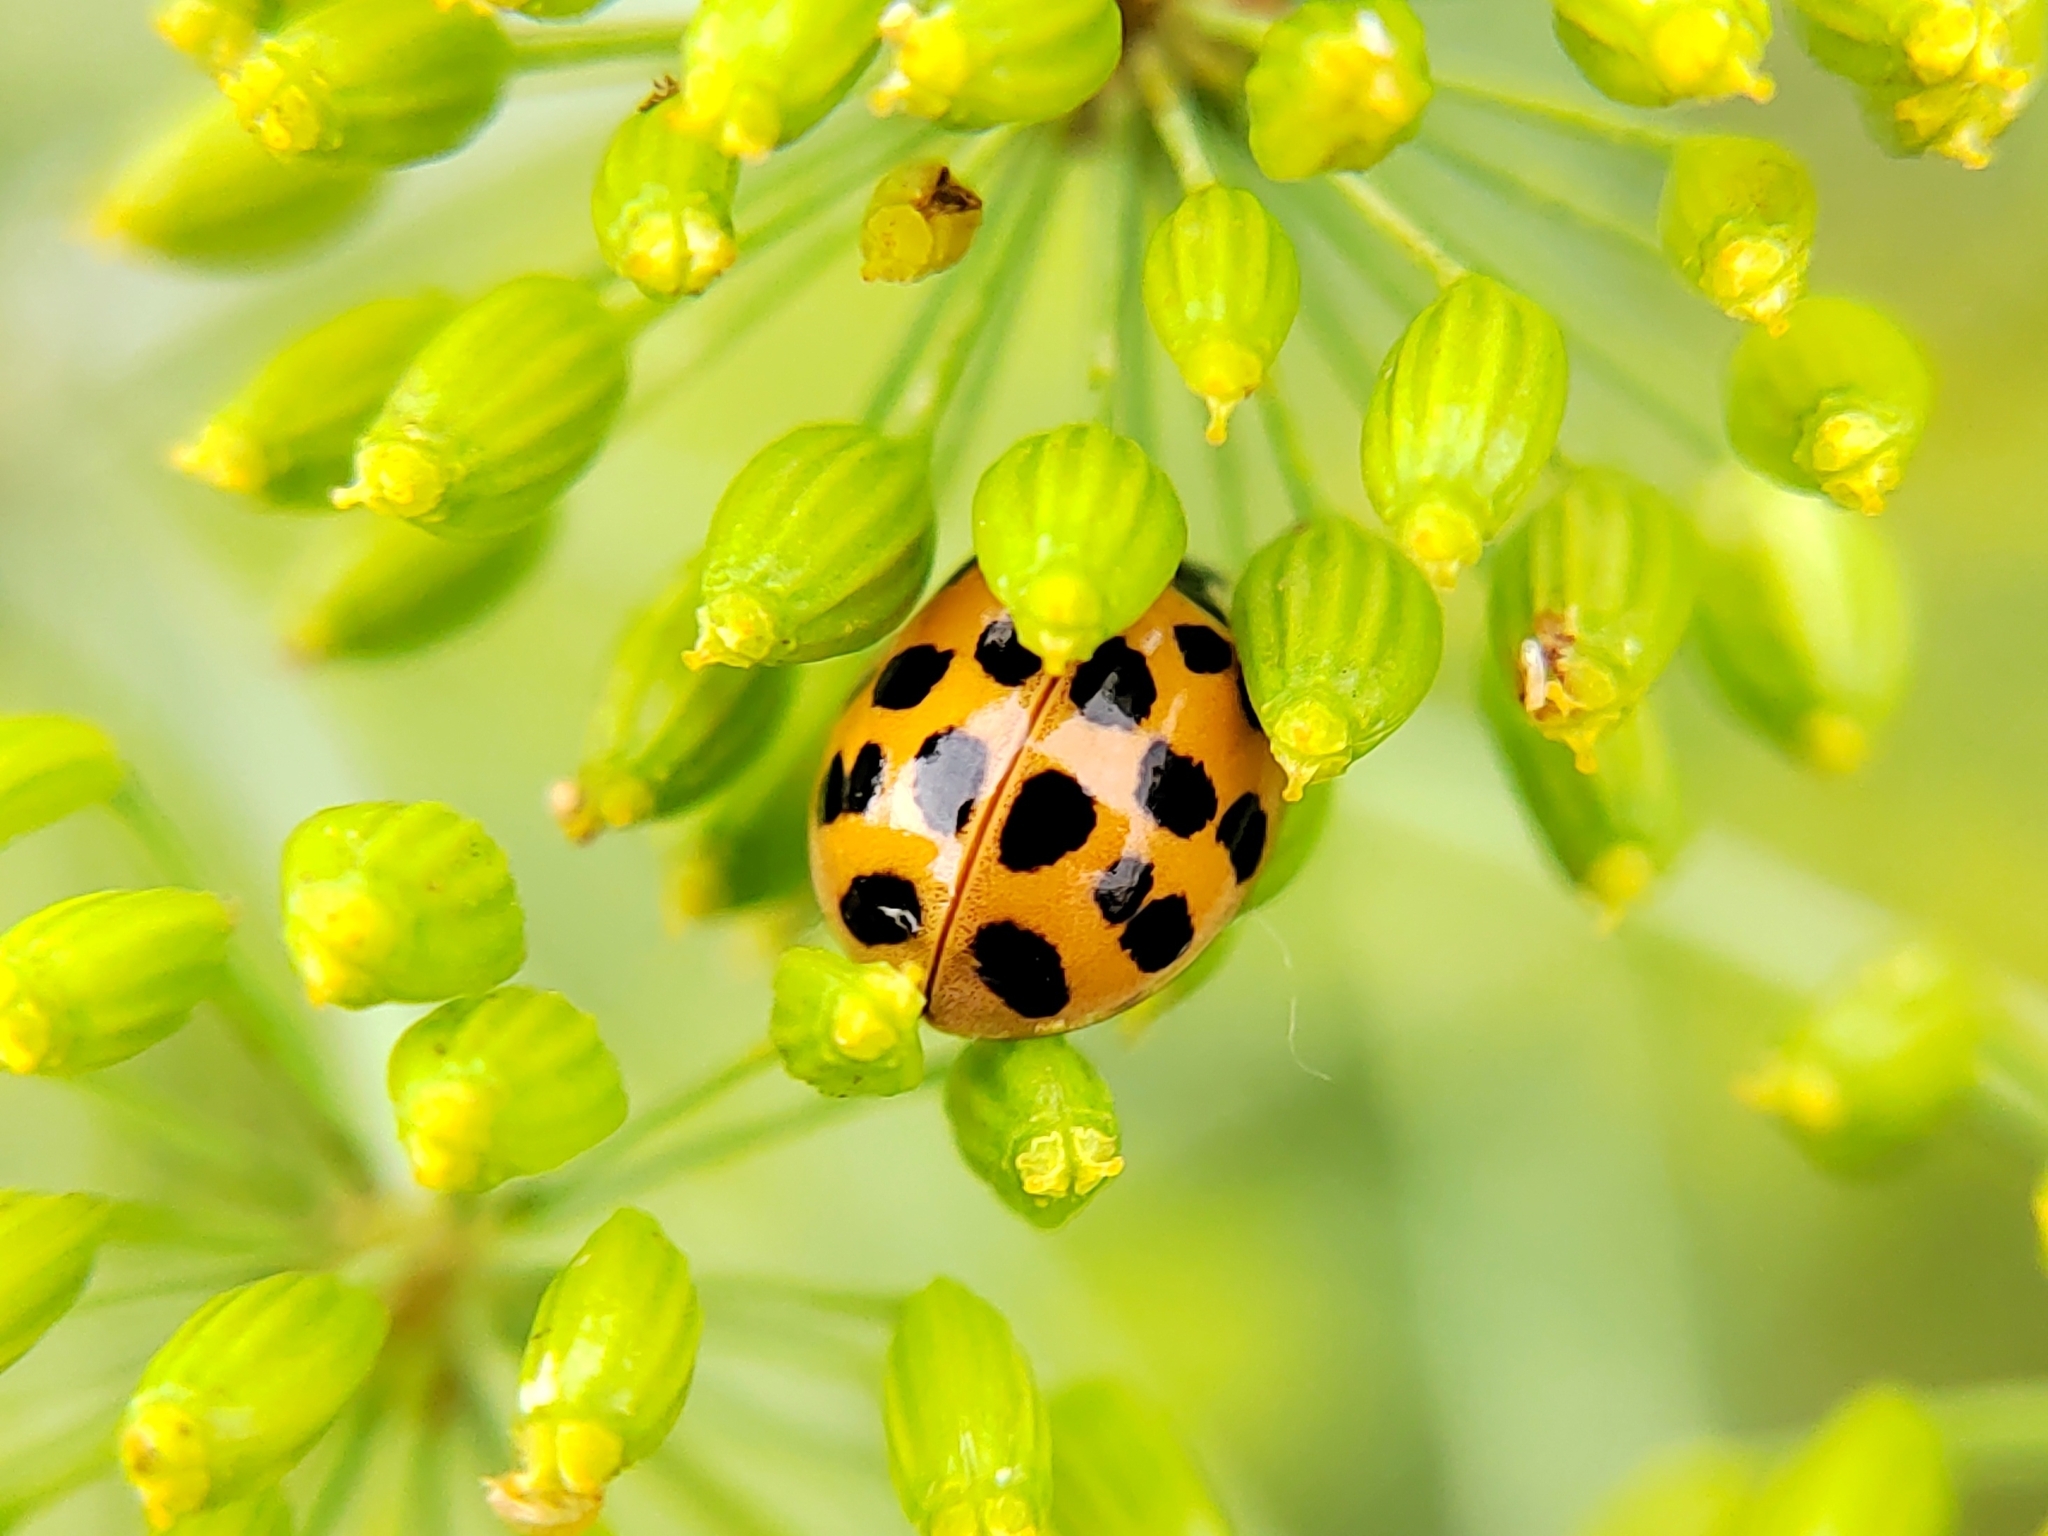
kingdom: Animalia
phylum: Arthropoda
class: Insecta
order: Coleoptera
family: Coccinellidae
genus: Harmonia
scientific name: Harmonia axyridis
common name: Harlequin ladybird
